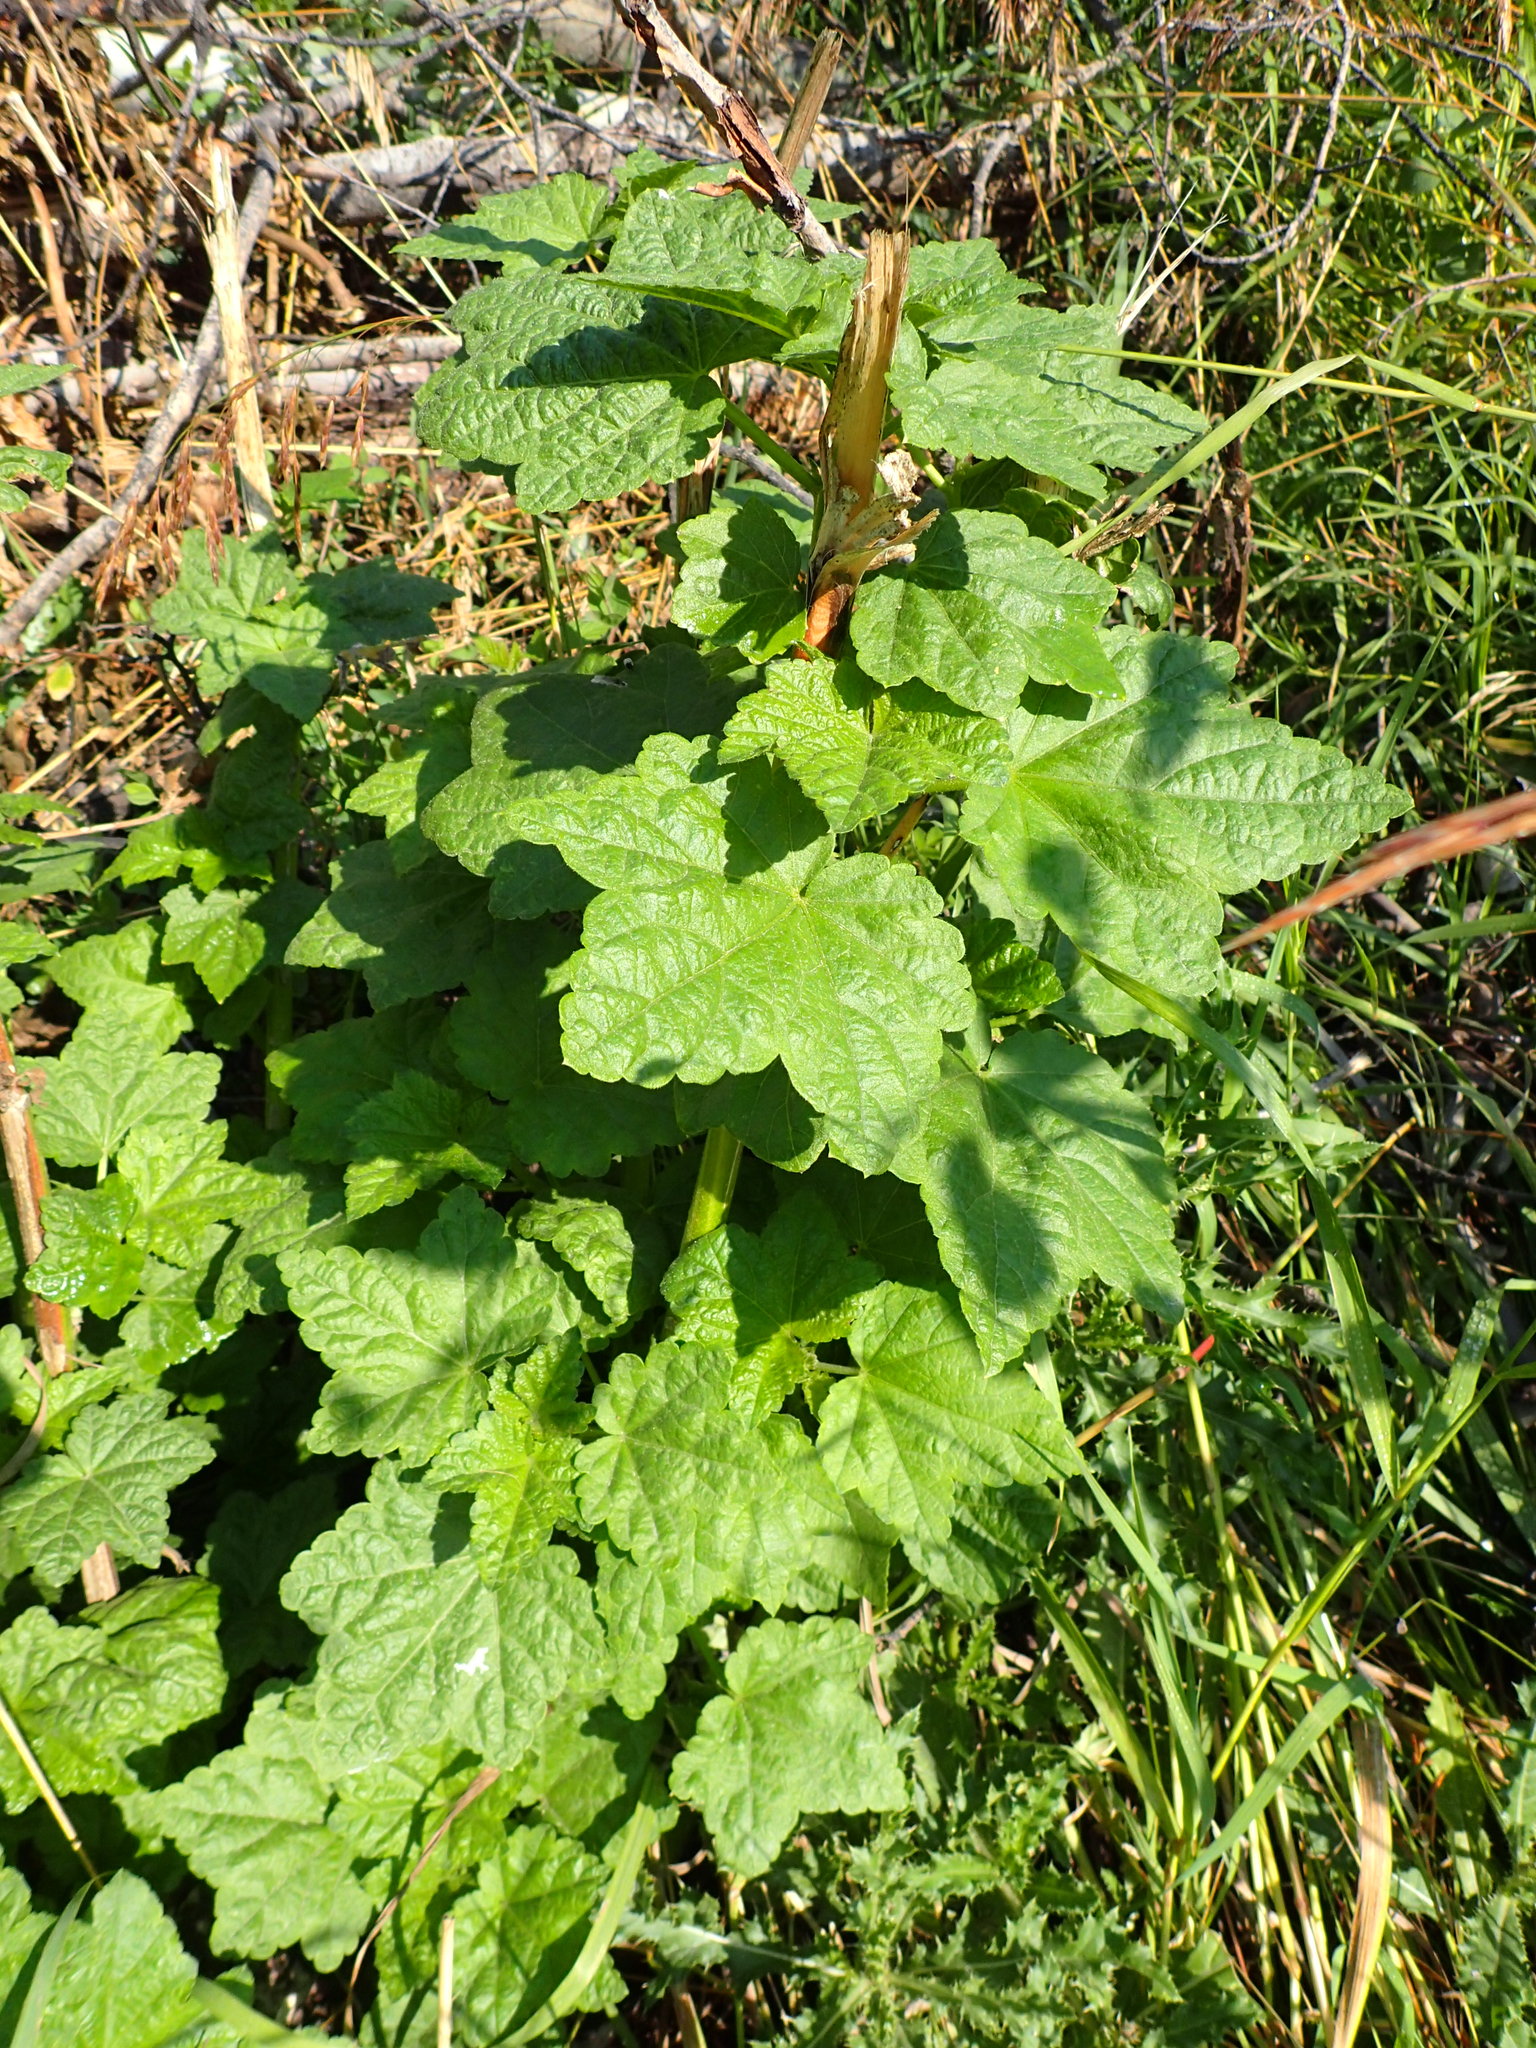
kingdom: Plantae
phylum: Tracheophyta
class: Magnoliopsida
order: Malvales
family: Malvaceae
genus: Iliamna
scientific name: Iliamna rivularis
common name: Wild hollyhock
